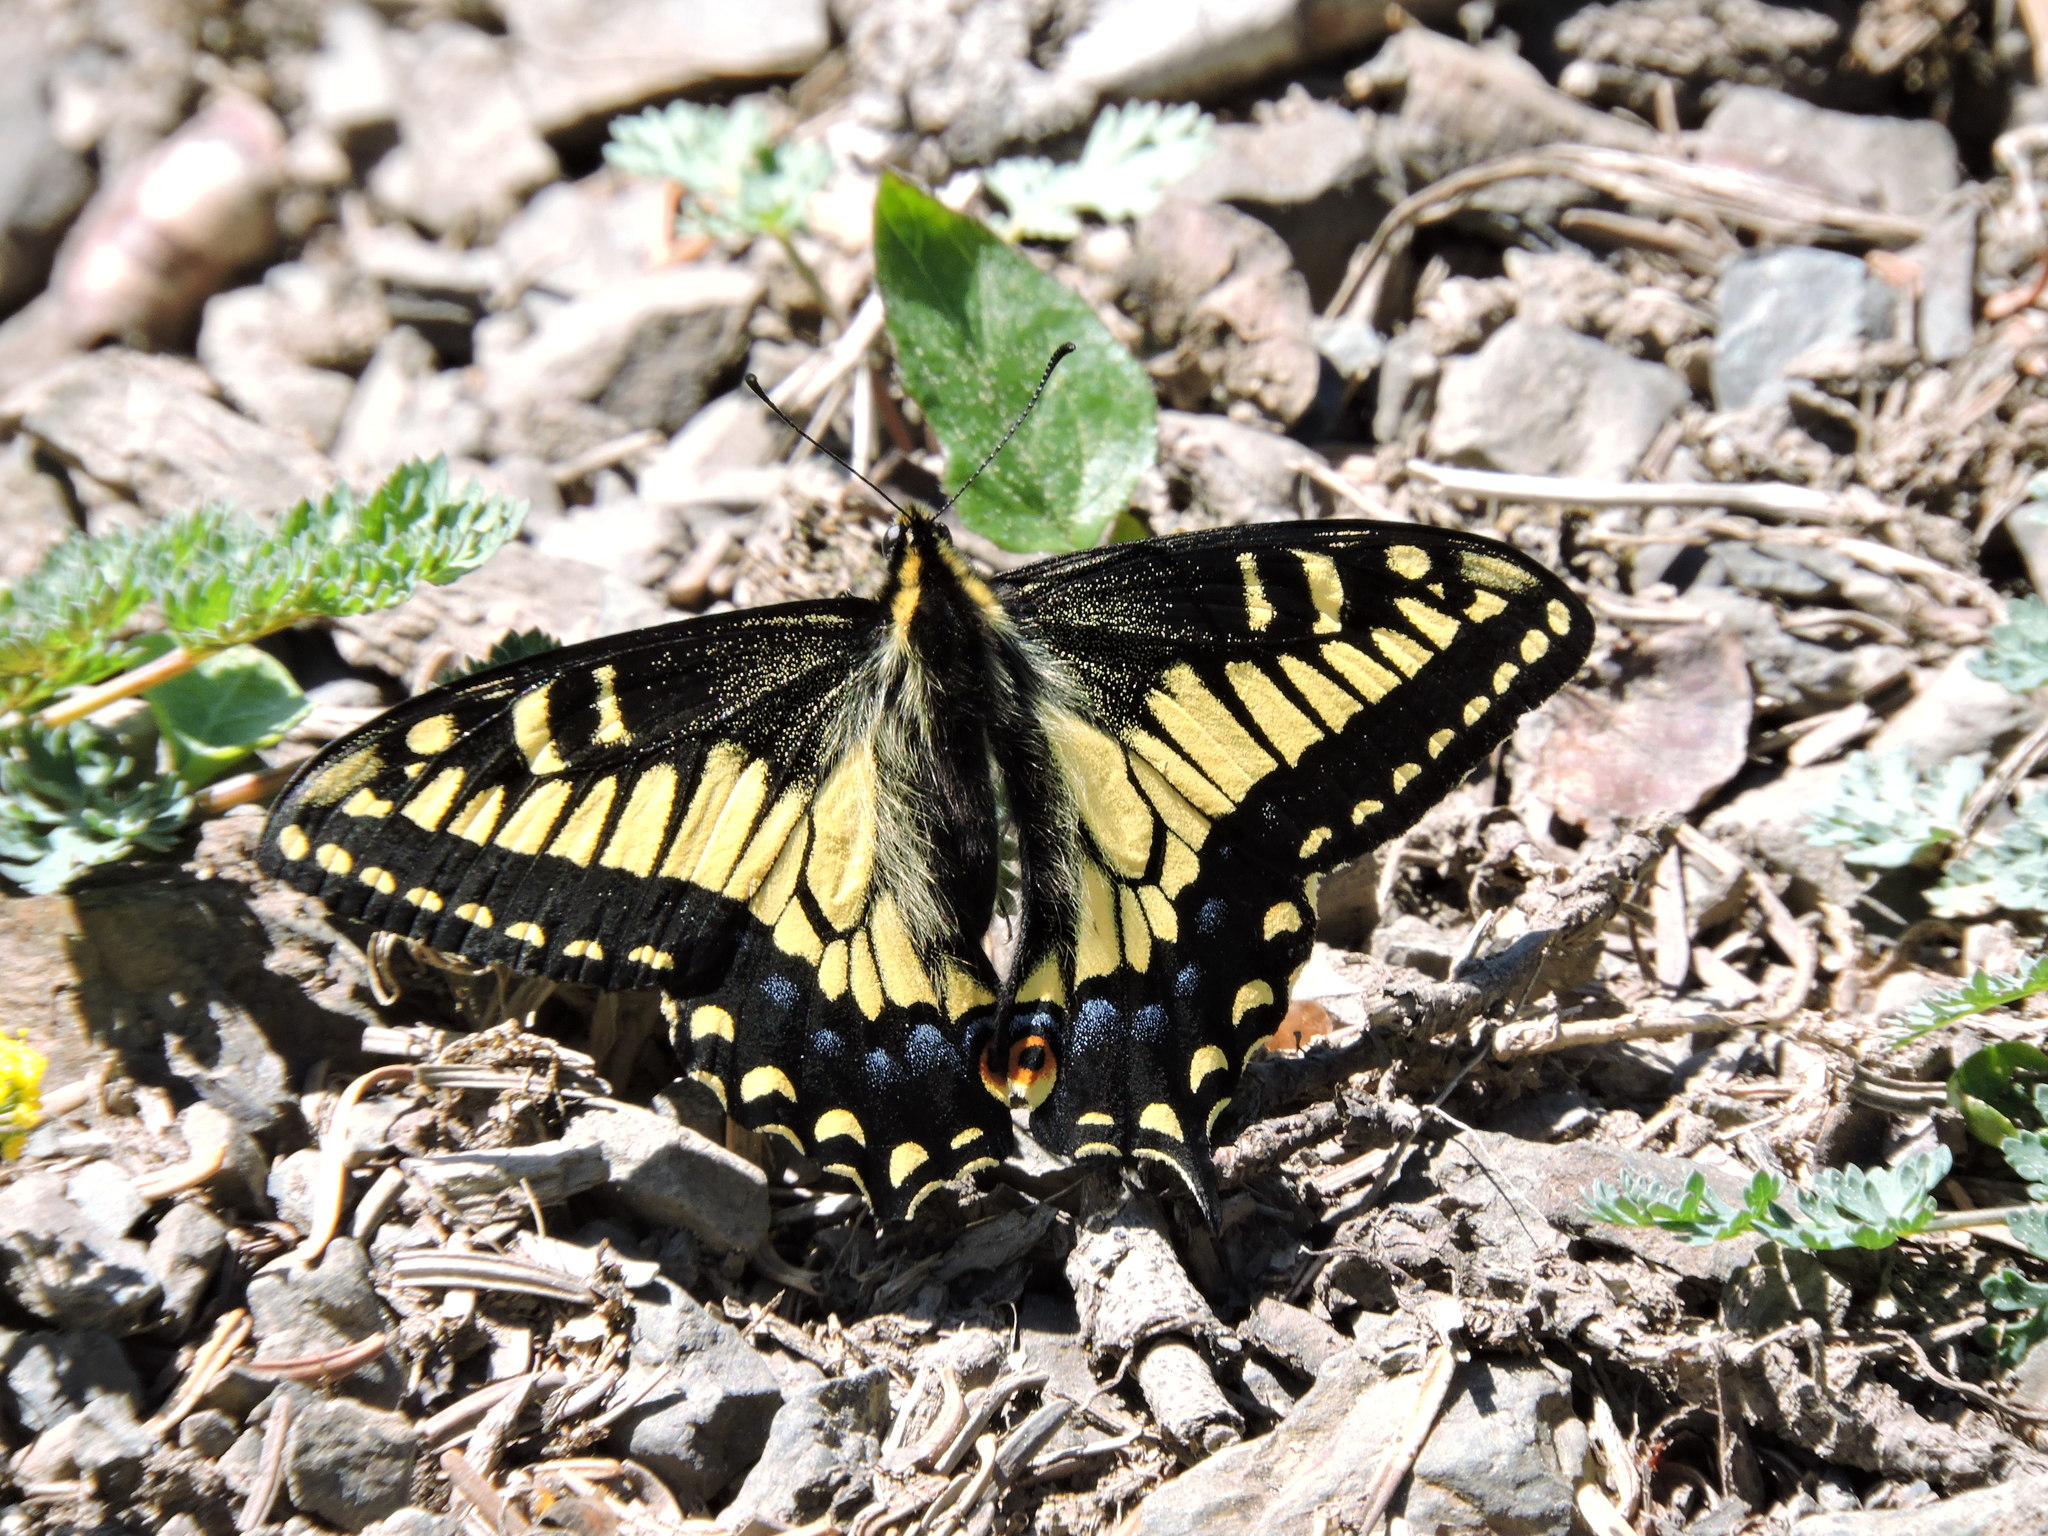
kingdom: Animalia
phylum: Arthropoda
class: Insecta
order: Lepidoptera
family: Papilionidae
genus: Papilio
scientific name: Papilio zelicaon
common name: Anise swallowtail
